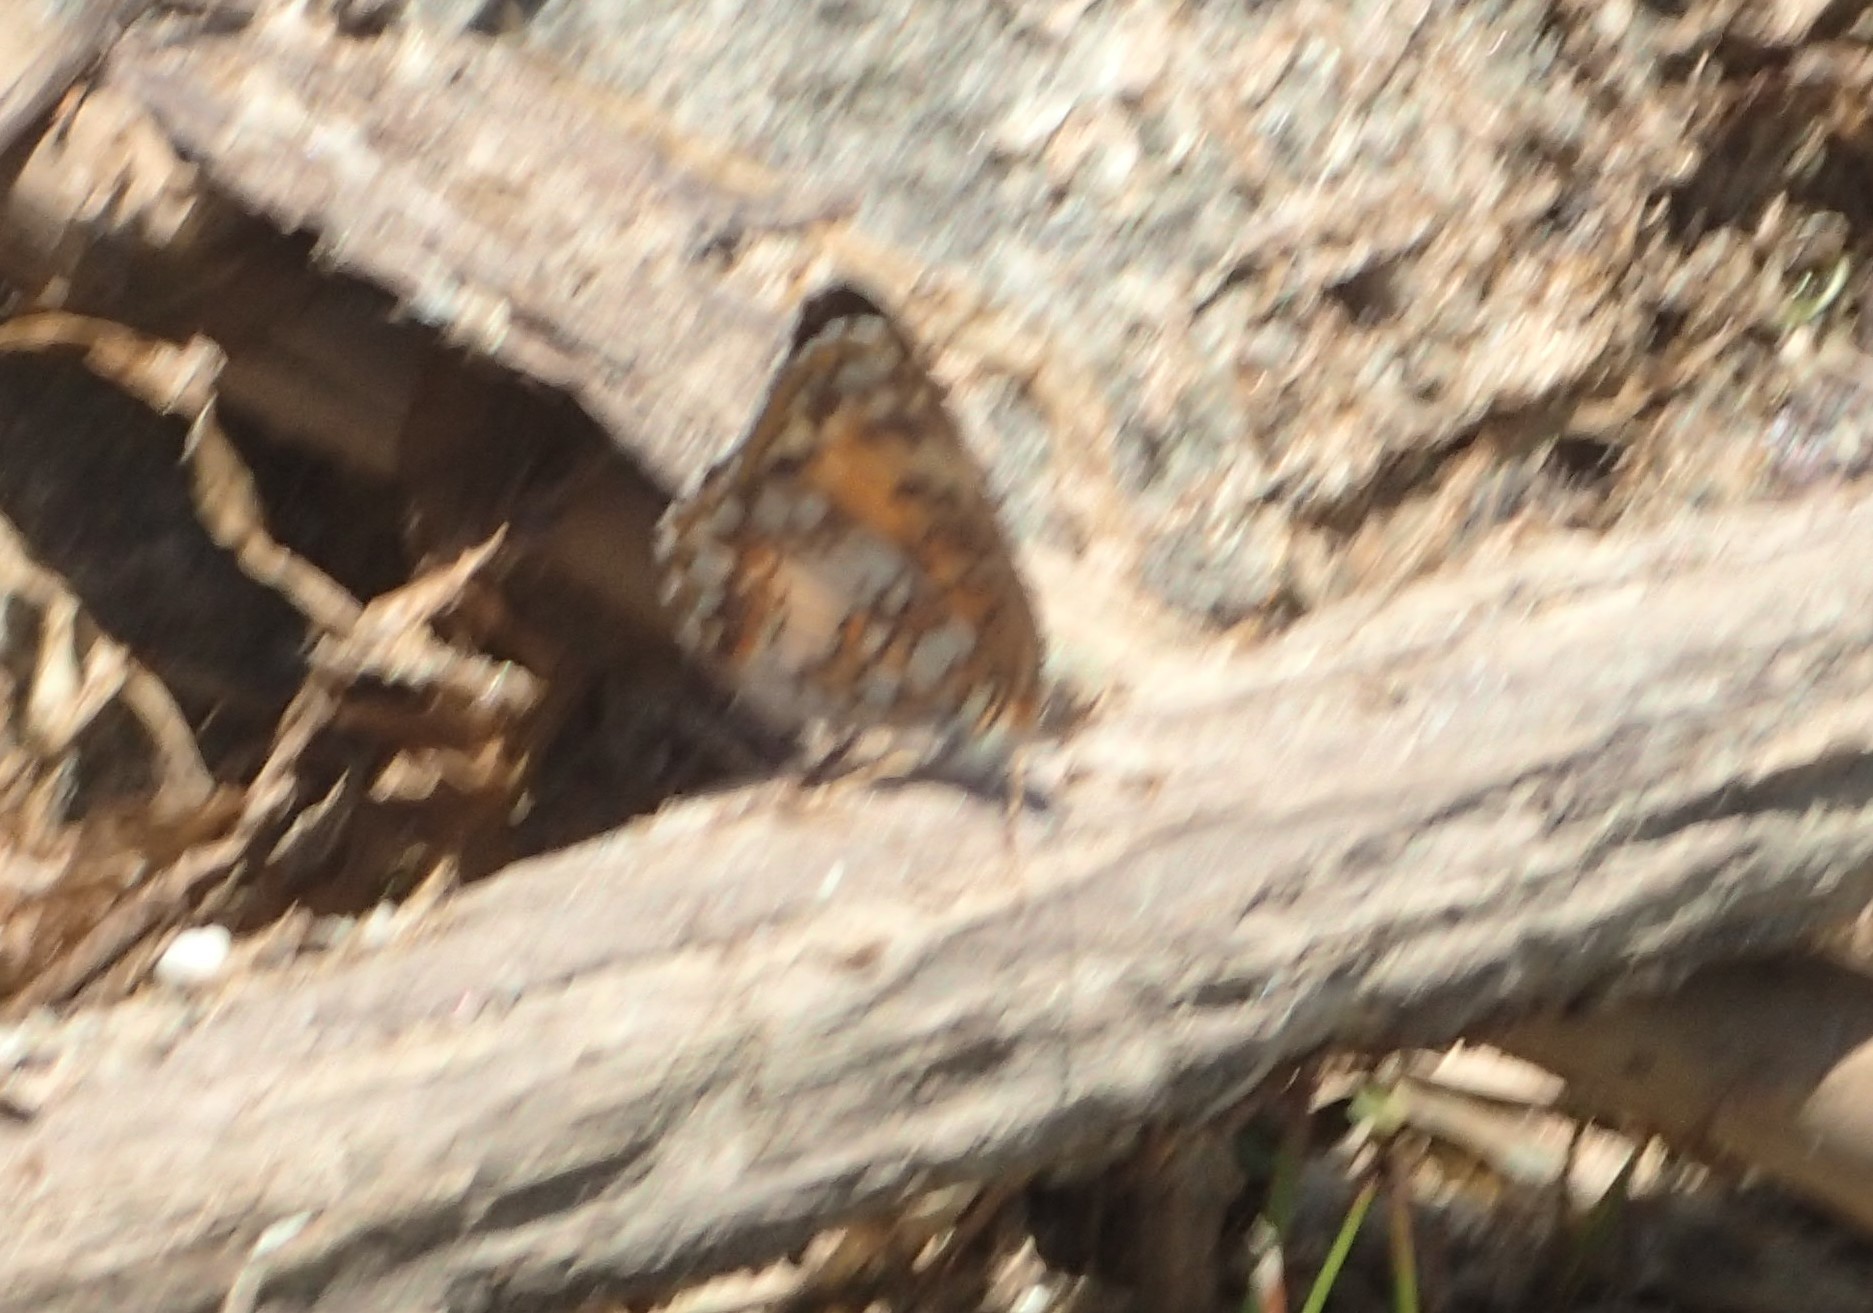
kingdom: Animalia
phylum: Arthropoda
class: Insecta
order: Lepidoptera
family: Nymphalidae
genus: Chlosyne
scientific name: Chlosyne harrisii
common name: Harris's checkerspot
